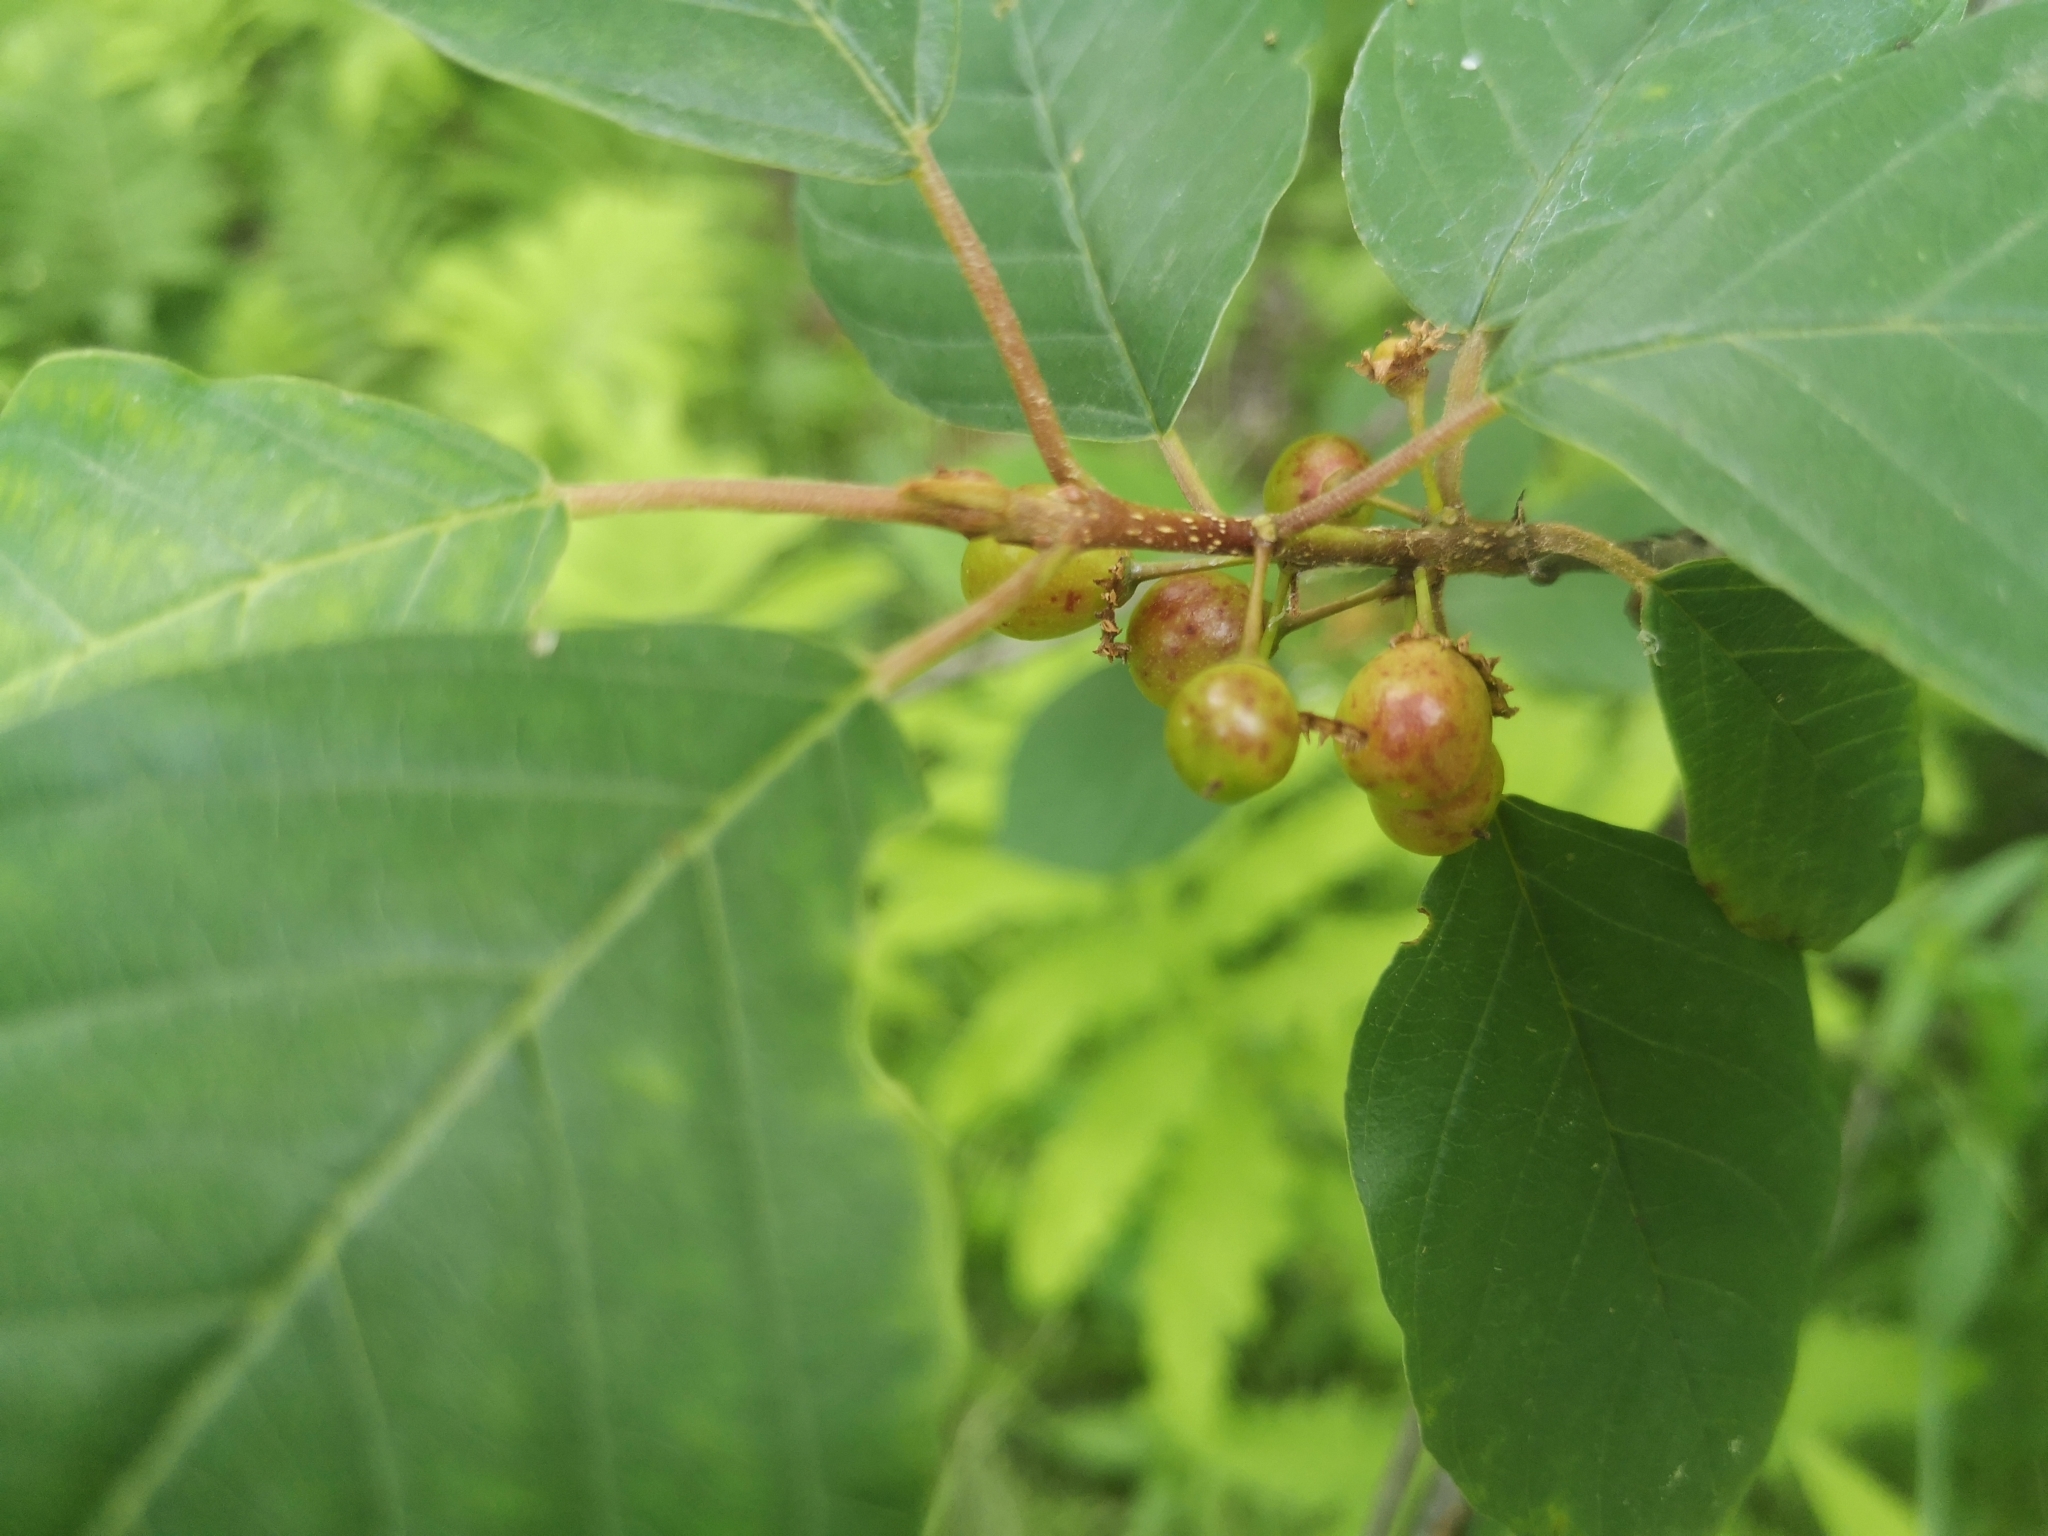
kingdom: Plantae
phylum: Tracheophyta
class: Magnoliopsida
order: Rosales
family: Rhamnaceae
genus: Frangula
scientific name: Frangula alnus
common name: Alder buckthorn
